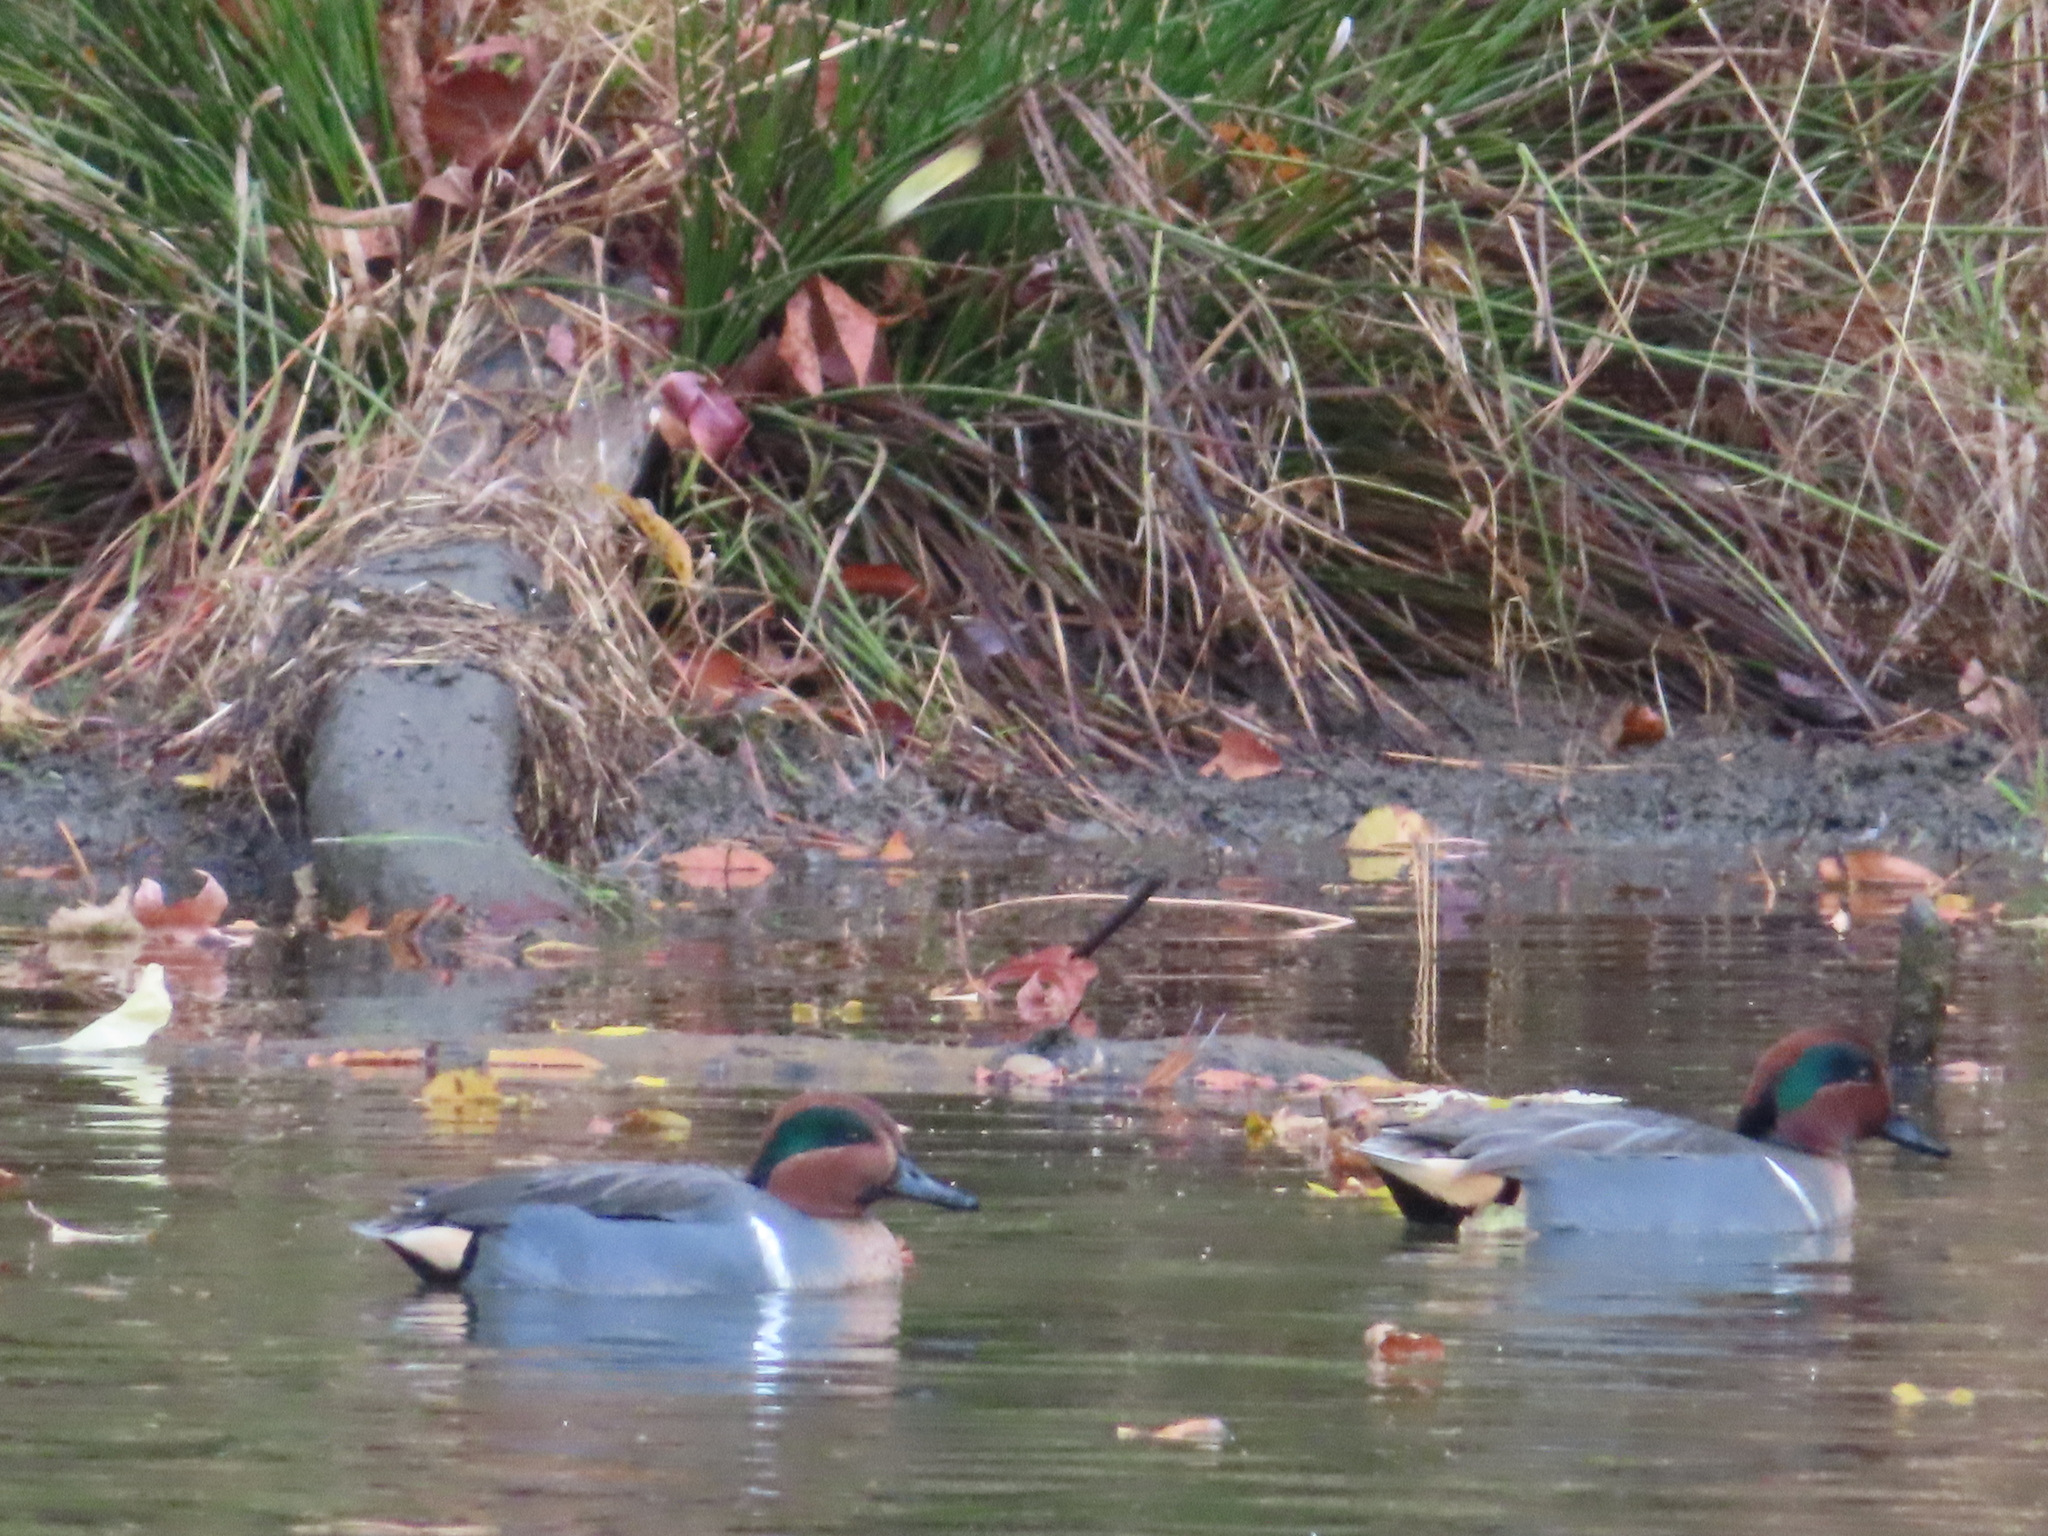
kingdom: Animalia
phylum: Chordata
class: Aves
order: Anseriformes
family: Anatidae
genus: Anas
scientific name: Anas crecca
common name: Eurasian teal
